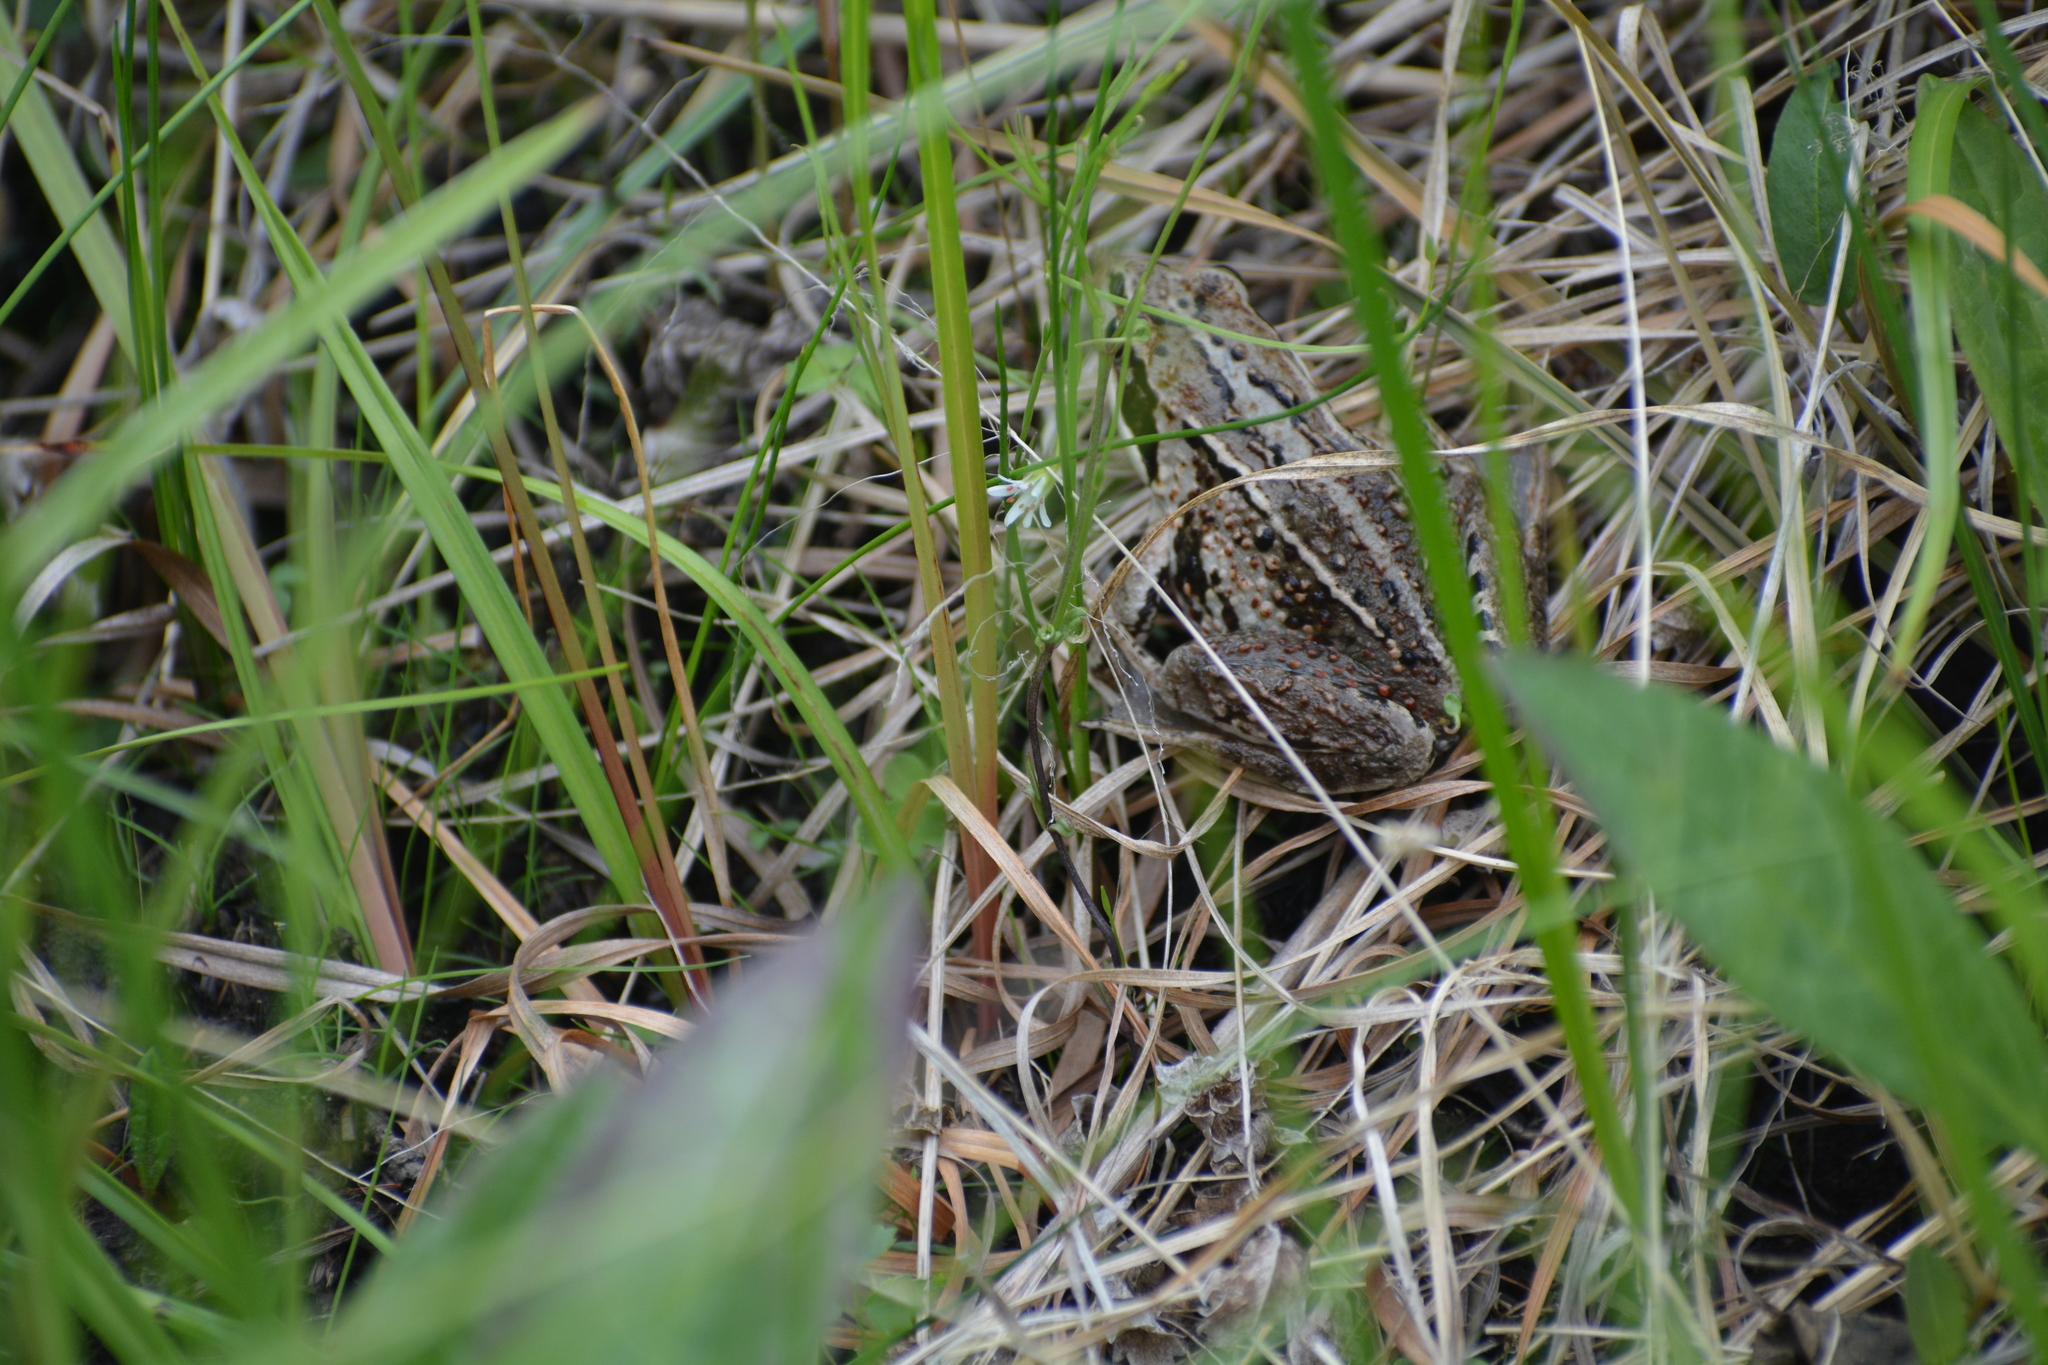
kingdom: Animalia
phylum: Chordata
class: Amphibia
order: Anura
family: Ranidae
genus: Rana
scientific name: Rana amurensis
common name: Amur brown frog
